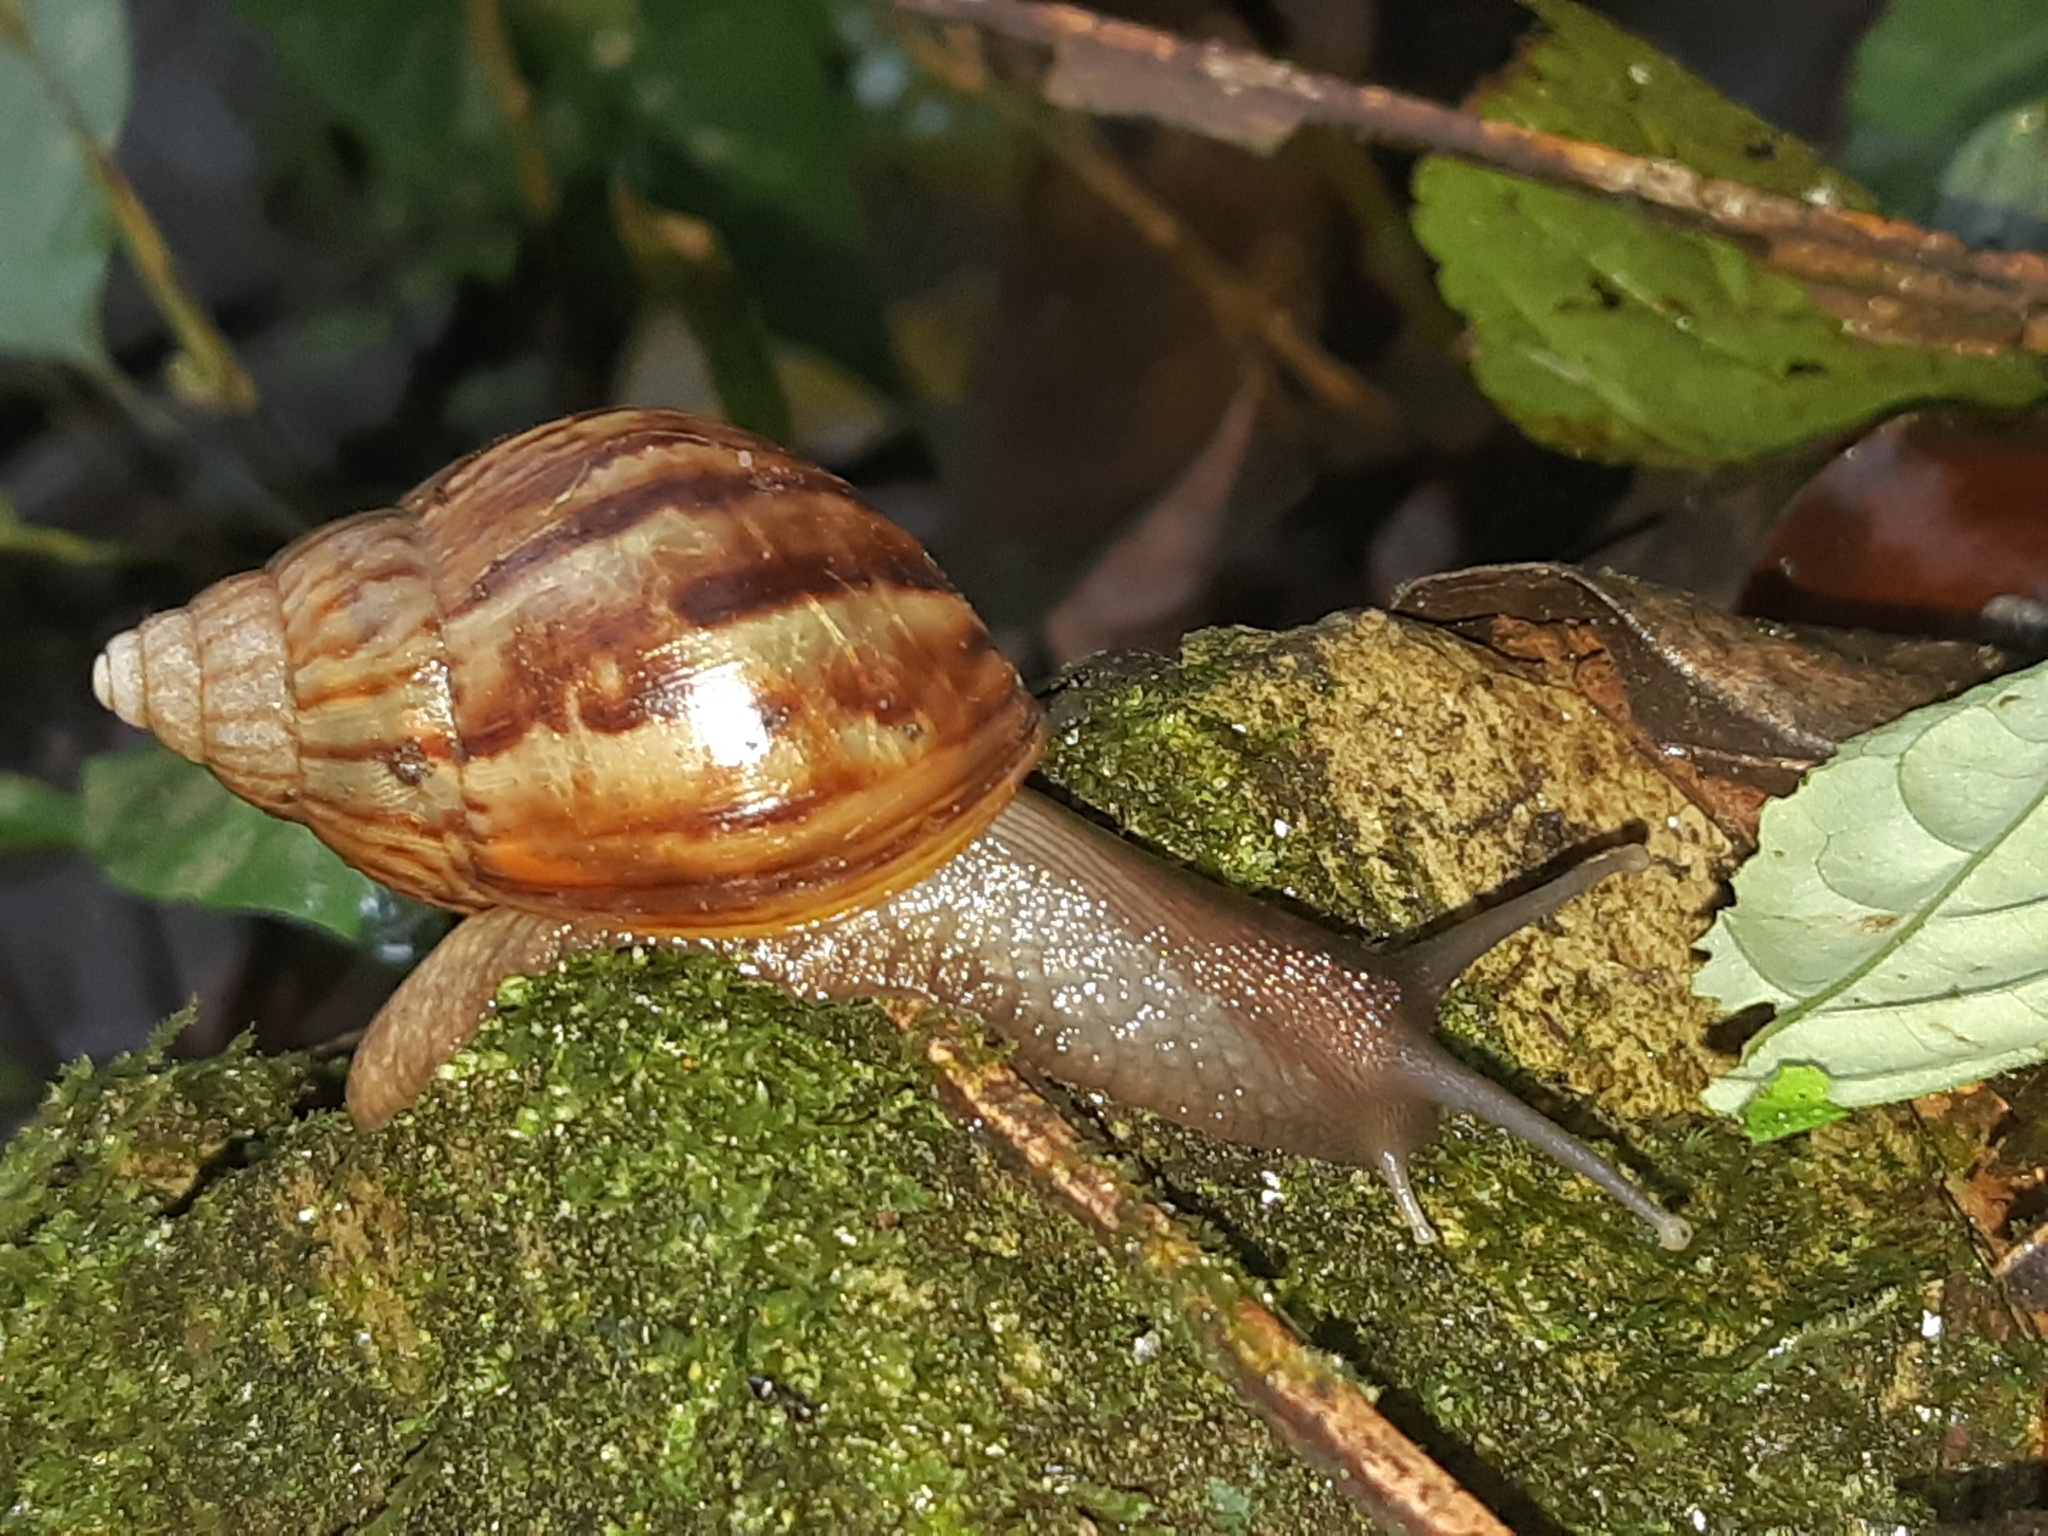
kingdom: Animalia
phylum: Mollusca
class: Gastropoda
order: Stylommatophora
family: Achatinidae
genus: Lissachatina
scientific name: Lissachatina fulica
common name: Giant african snail
